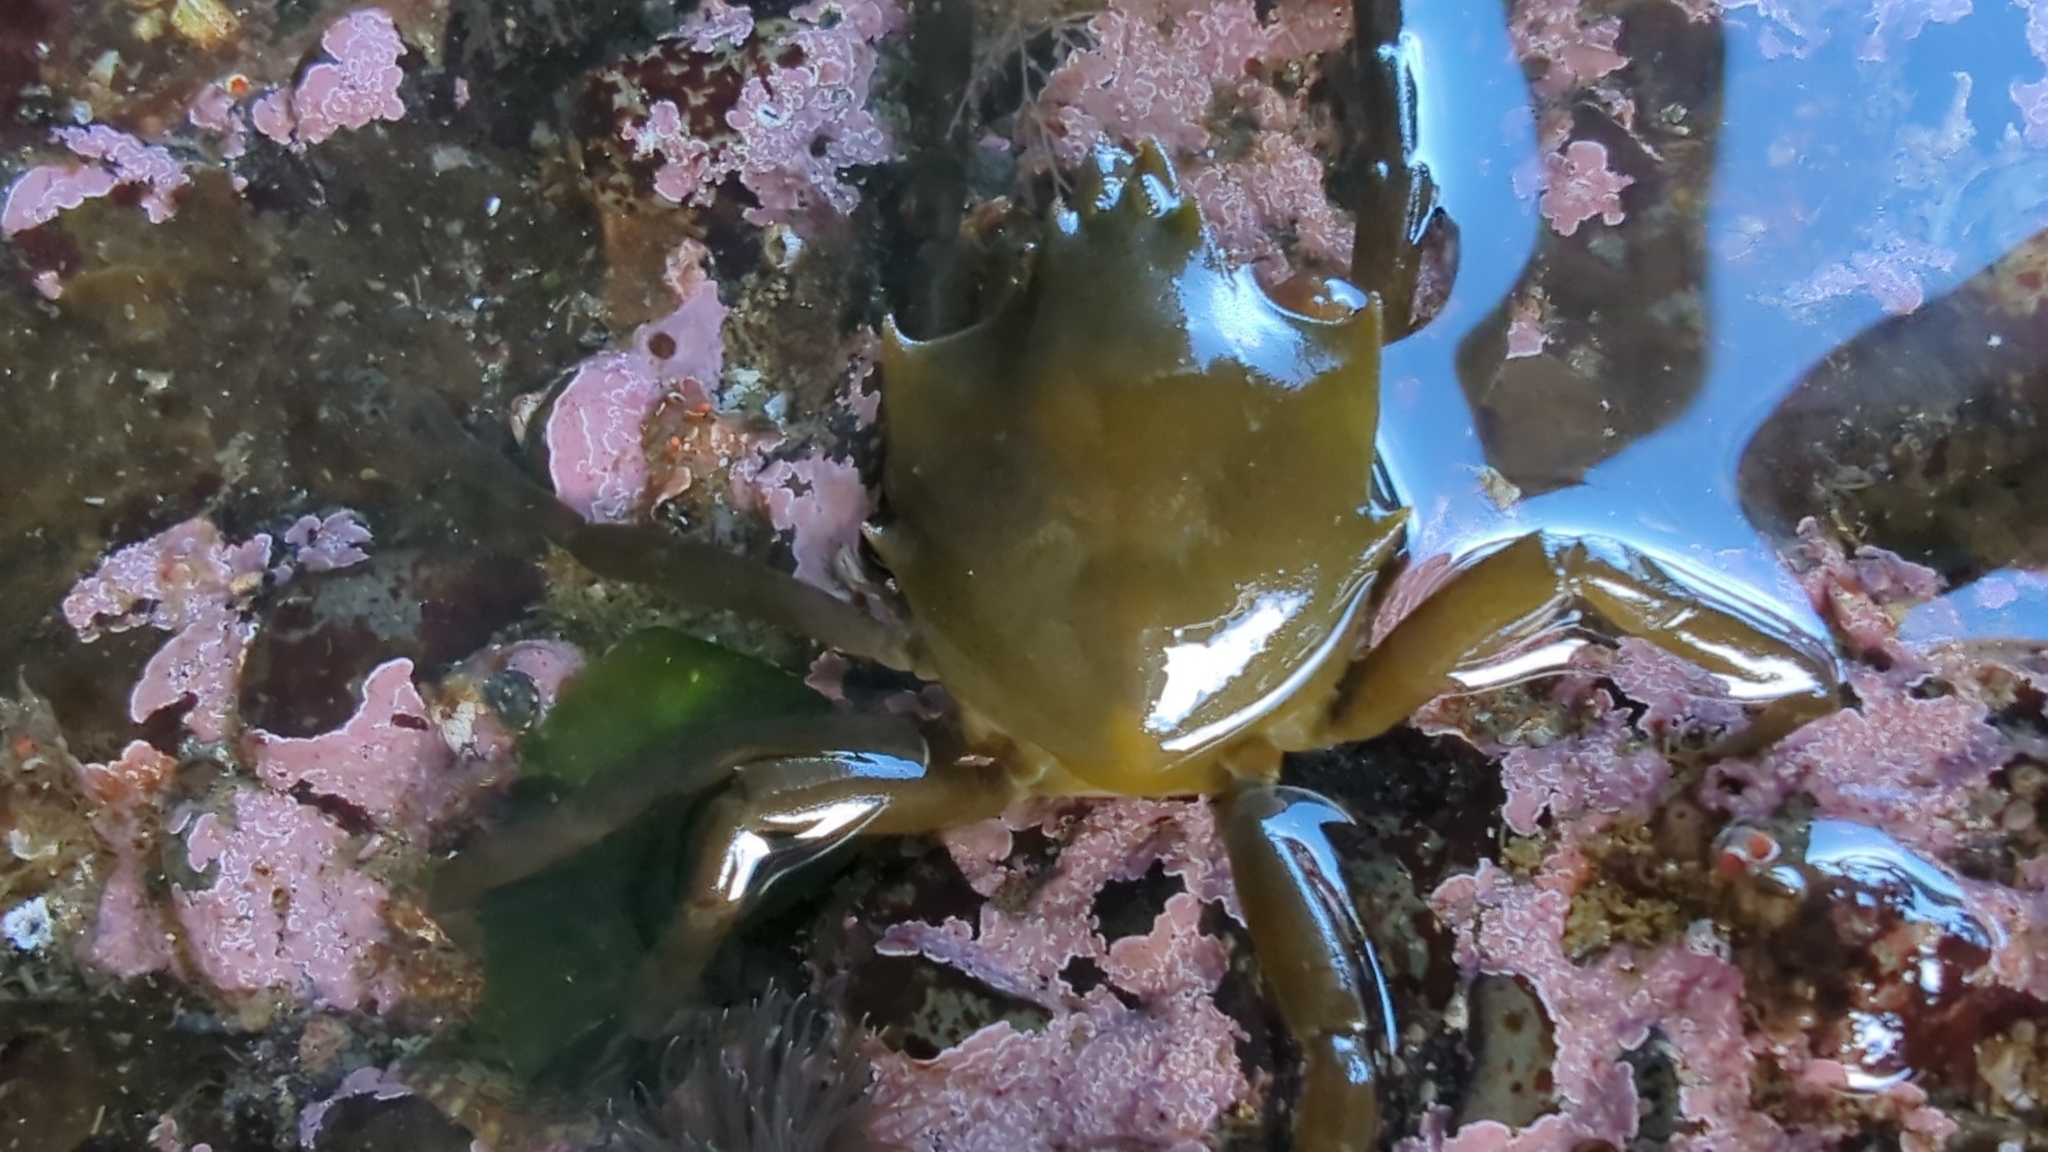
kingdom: Animalia
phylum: Arthropoda
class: Malacostraca
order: Decapoda
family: Epialtidae
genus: Pugettia
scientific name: Pugettia producta
